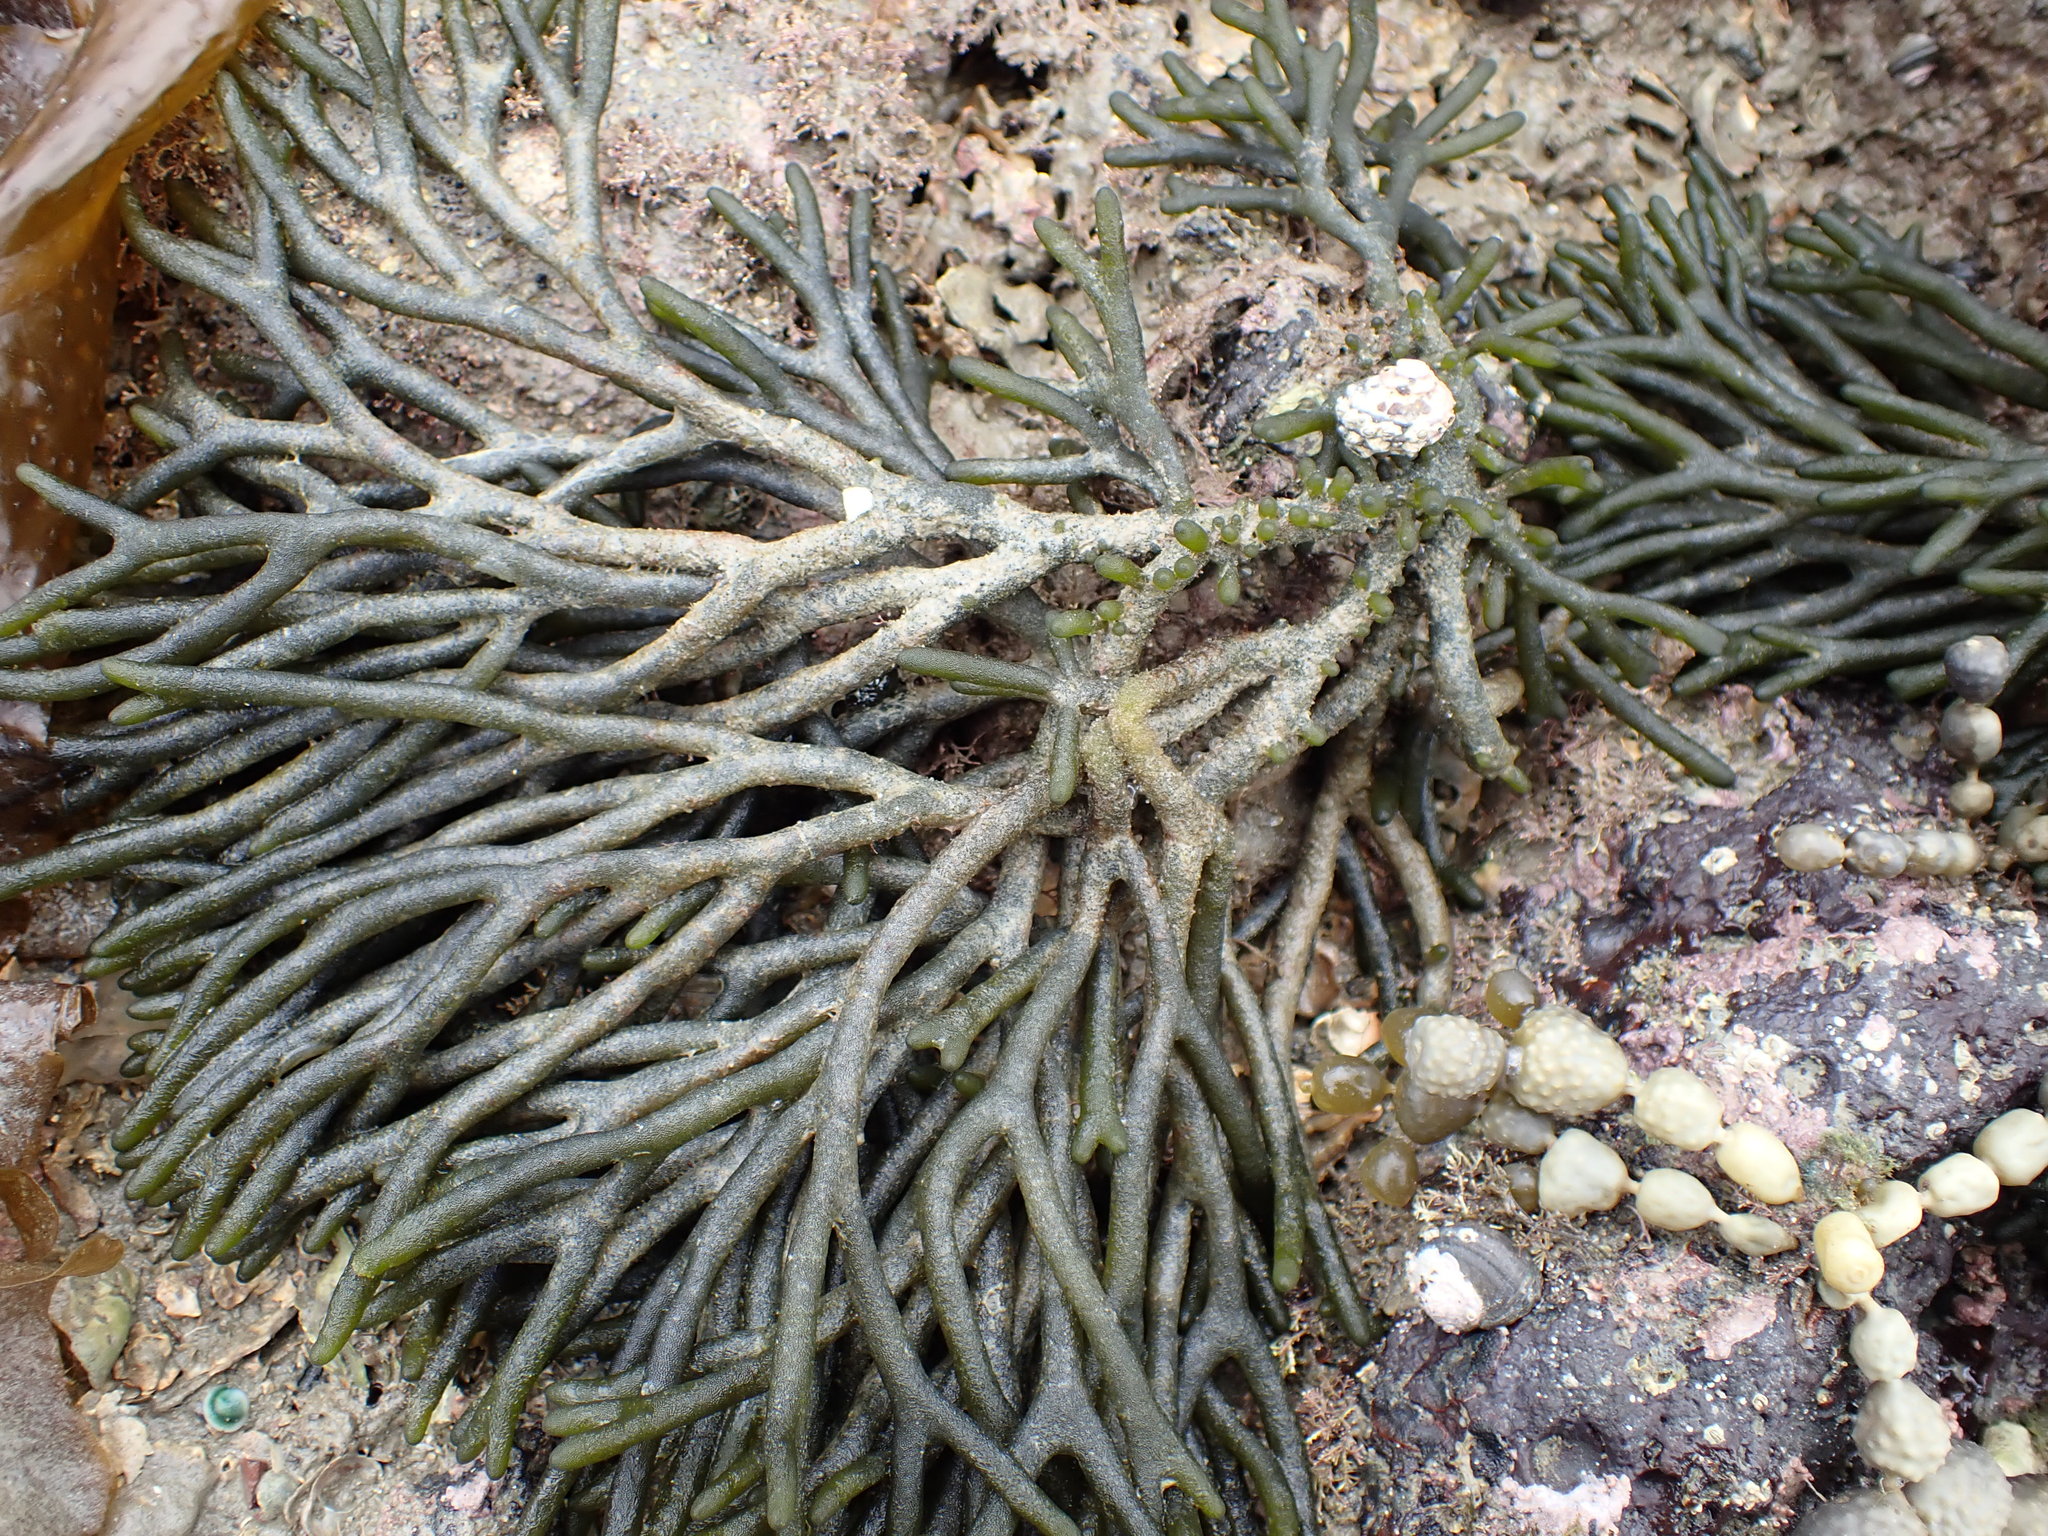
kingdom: Plantae
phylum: Chlorophyta
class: Ulvophyceae
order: Bryopsidales
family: Codiaceae
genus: Codium
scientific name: Codium fragile
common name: Dead man's fingers
